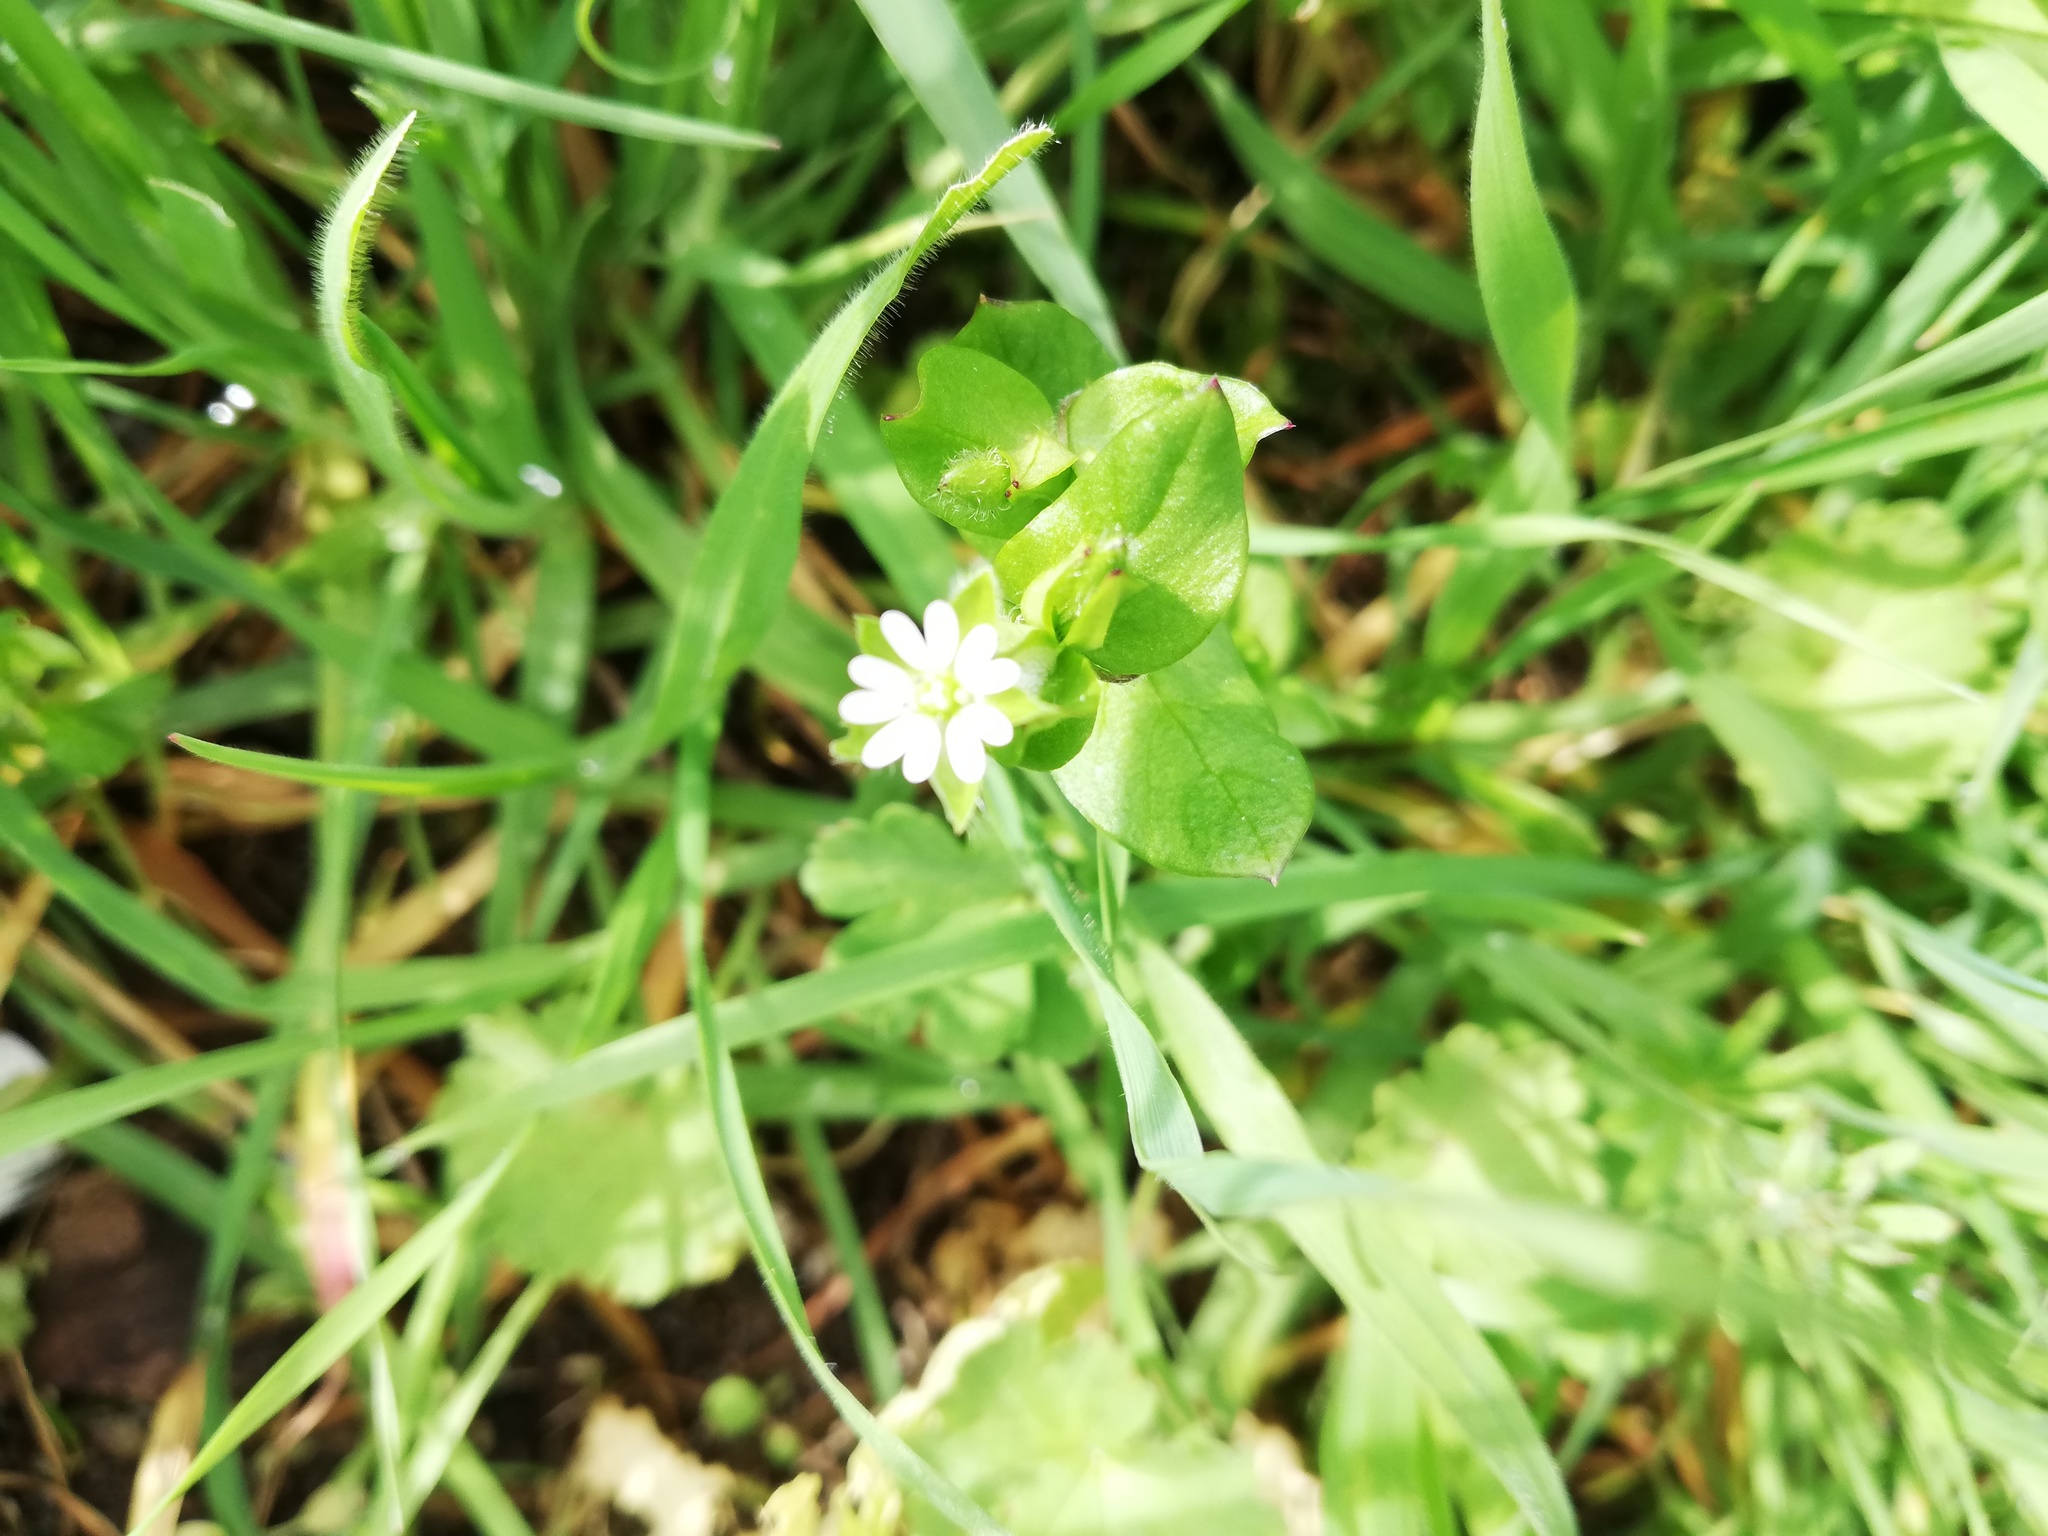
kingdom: Plantae
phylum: Tracheophyta
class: Magnoliopsida
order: Caryophyllales
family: Caryophyllaceae
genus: Stellaria
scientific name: Stellaria media
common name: Common chickweed
